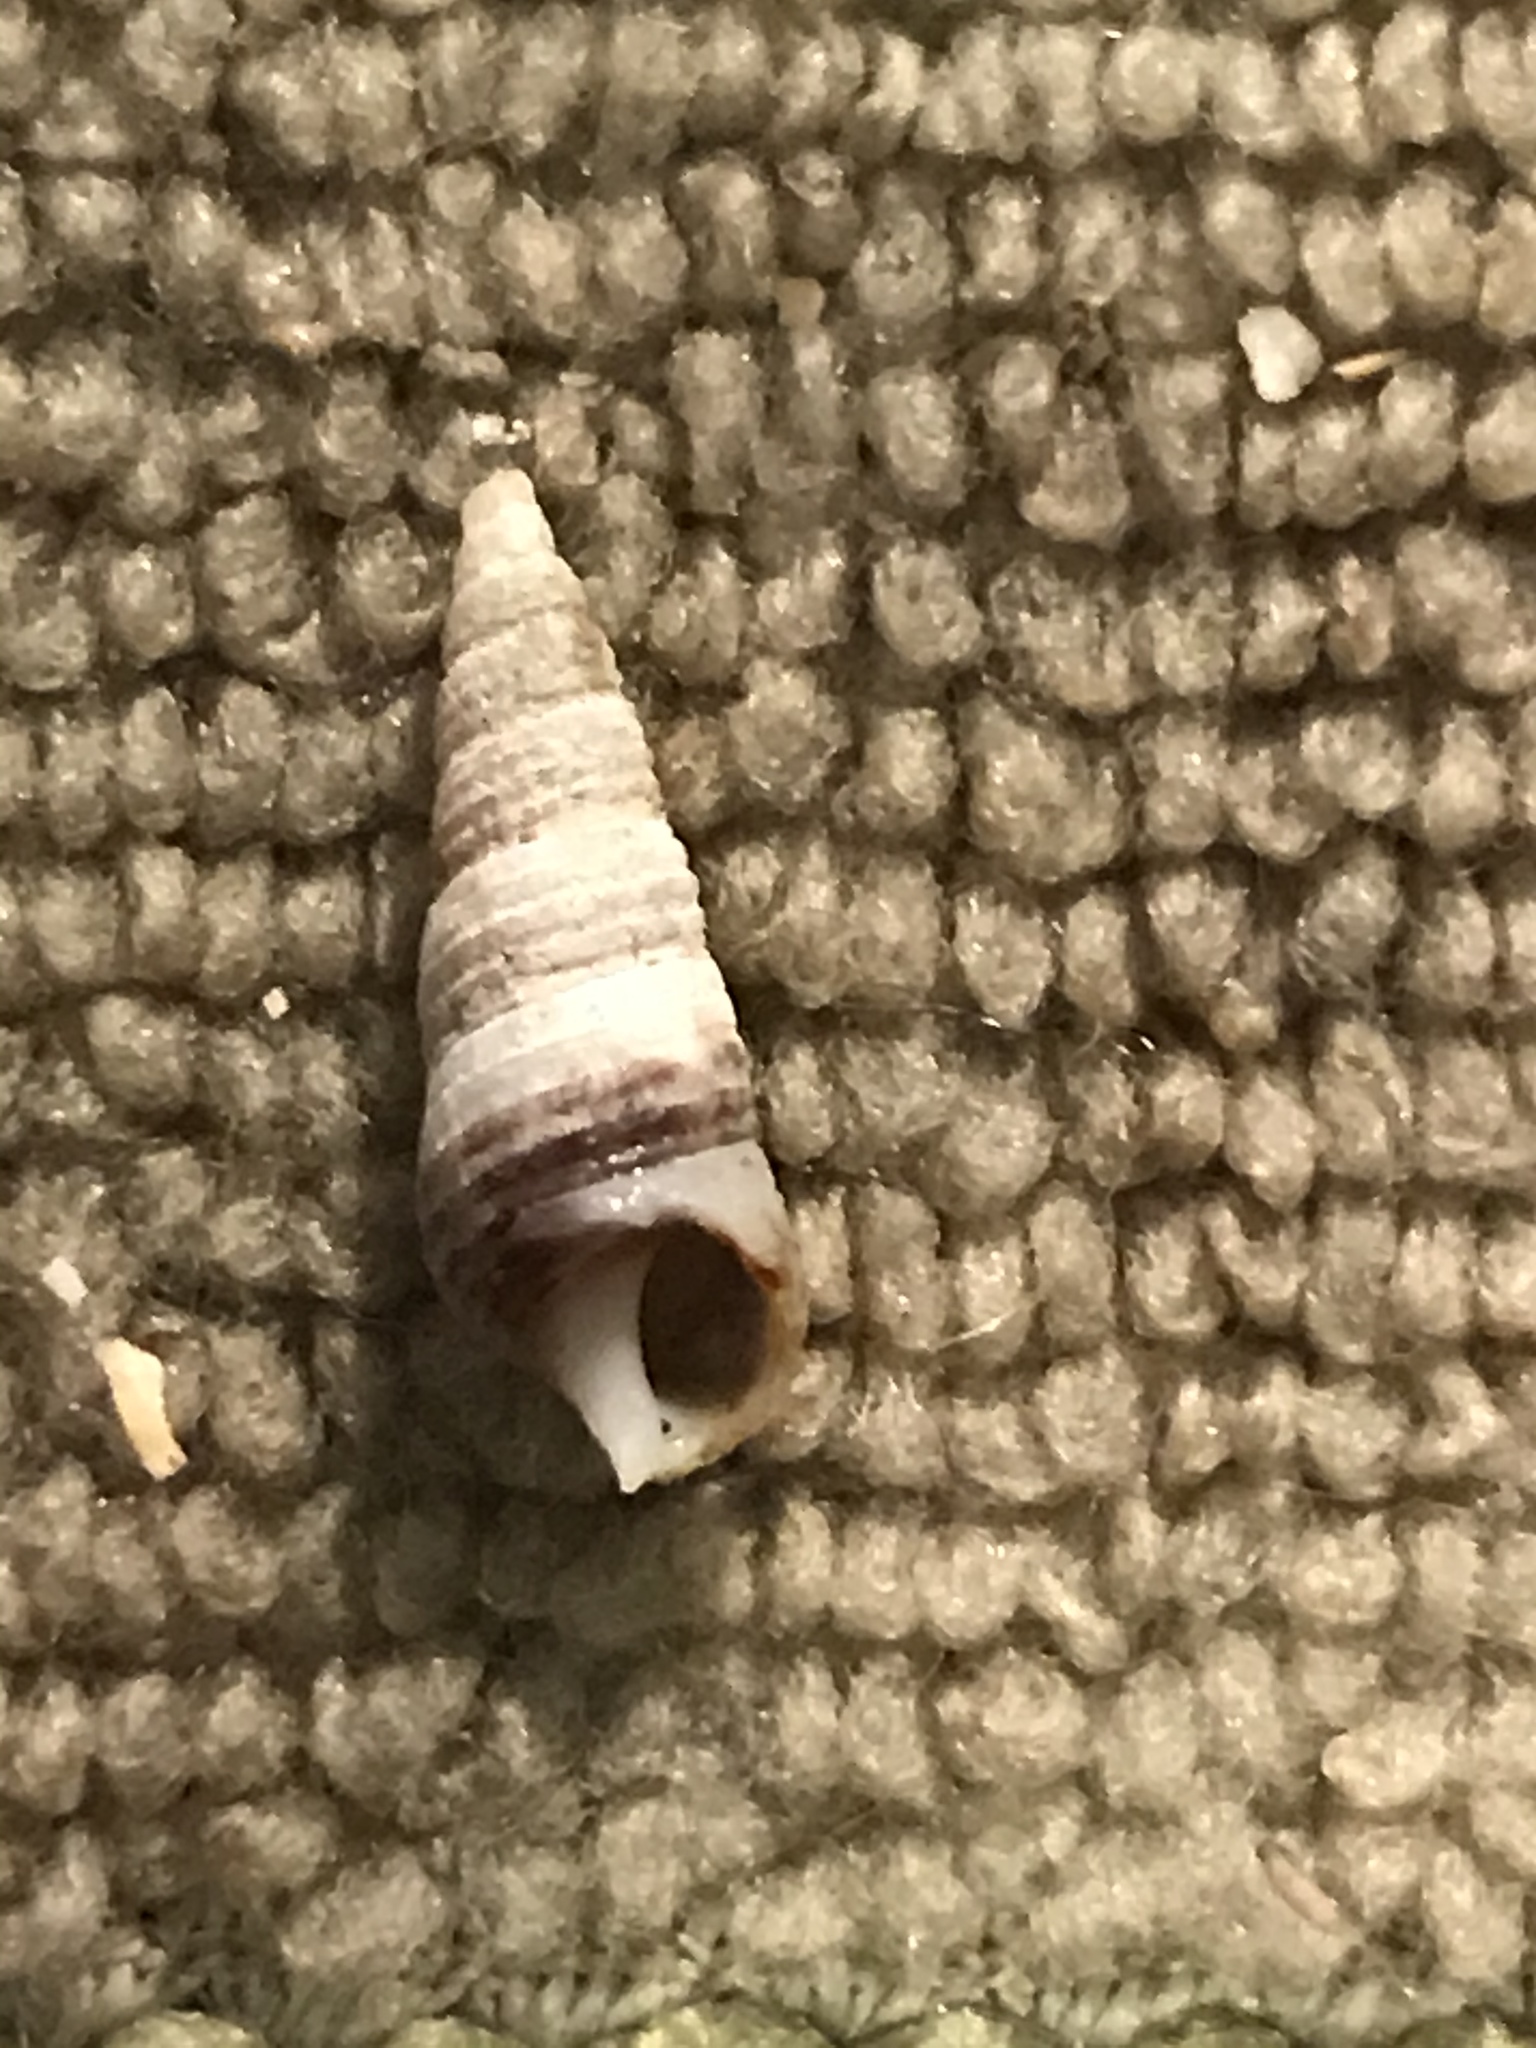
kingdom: Animalia
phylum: Mollusca
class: Gastropoda
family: Cerithiidae
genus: Neostylidium
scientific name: Neostylidium eschrichtii
